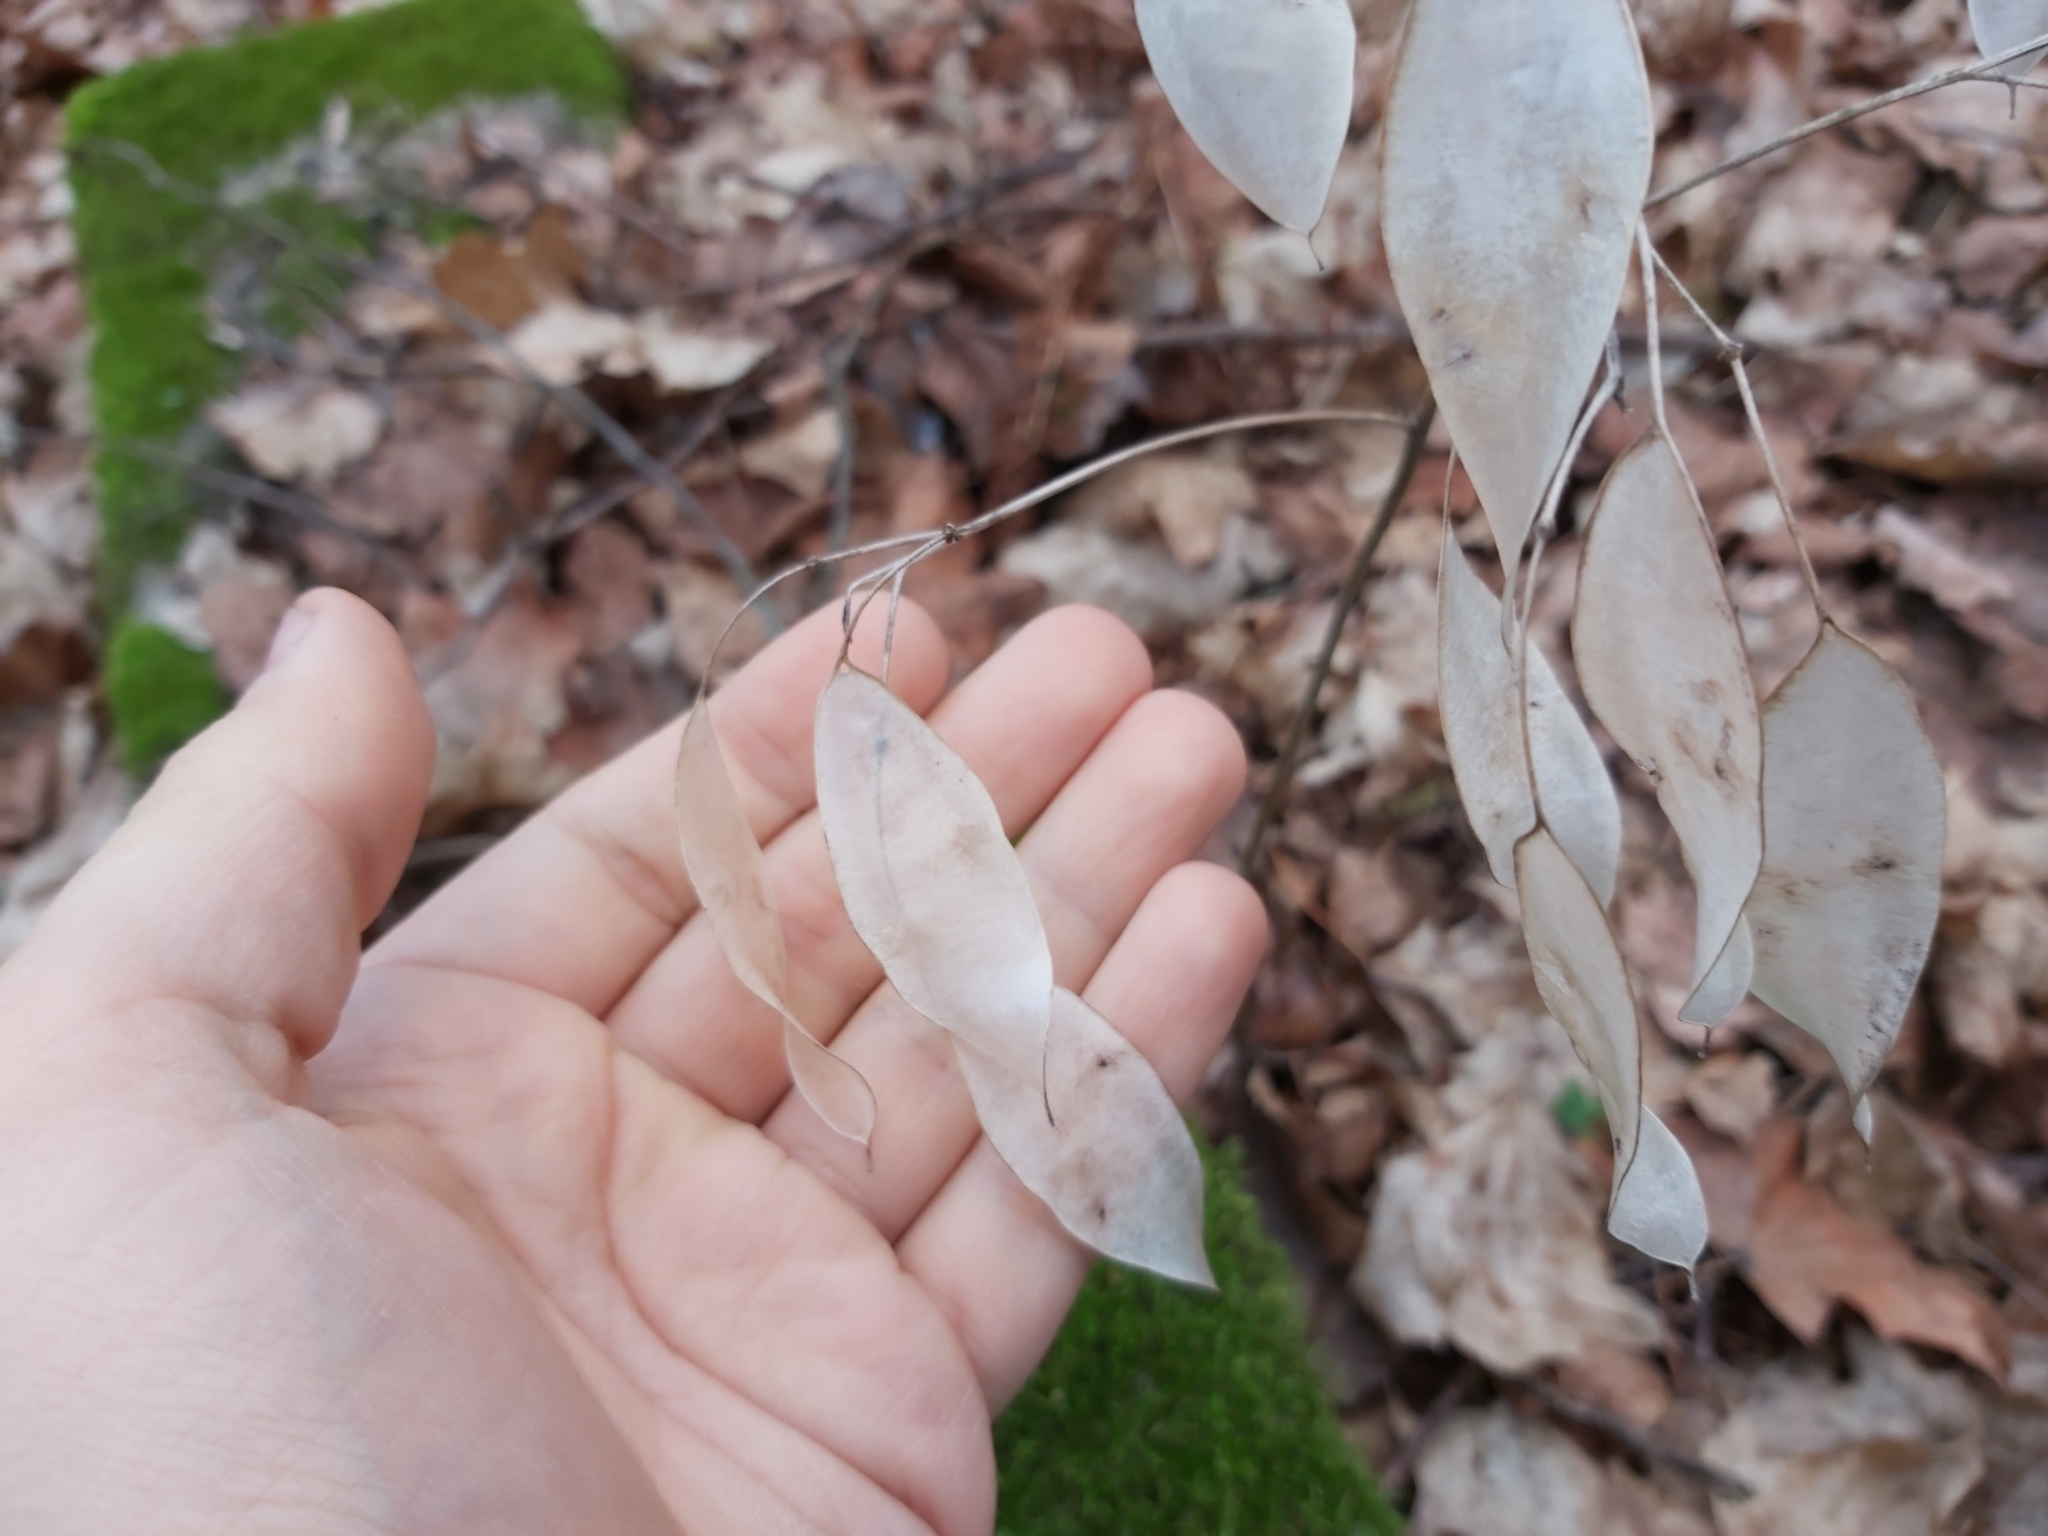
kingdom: Plantae
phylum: Tracheophyta
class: Magnoliopsida
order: Brassicales
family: Brassicaceae
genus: Lunaria
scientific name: Lunaria rediviva
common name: Perennial honesty
